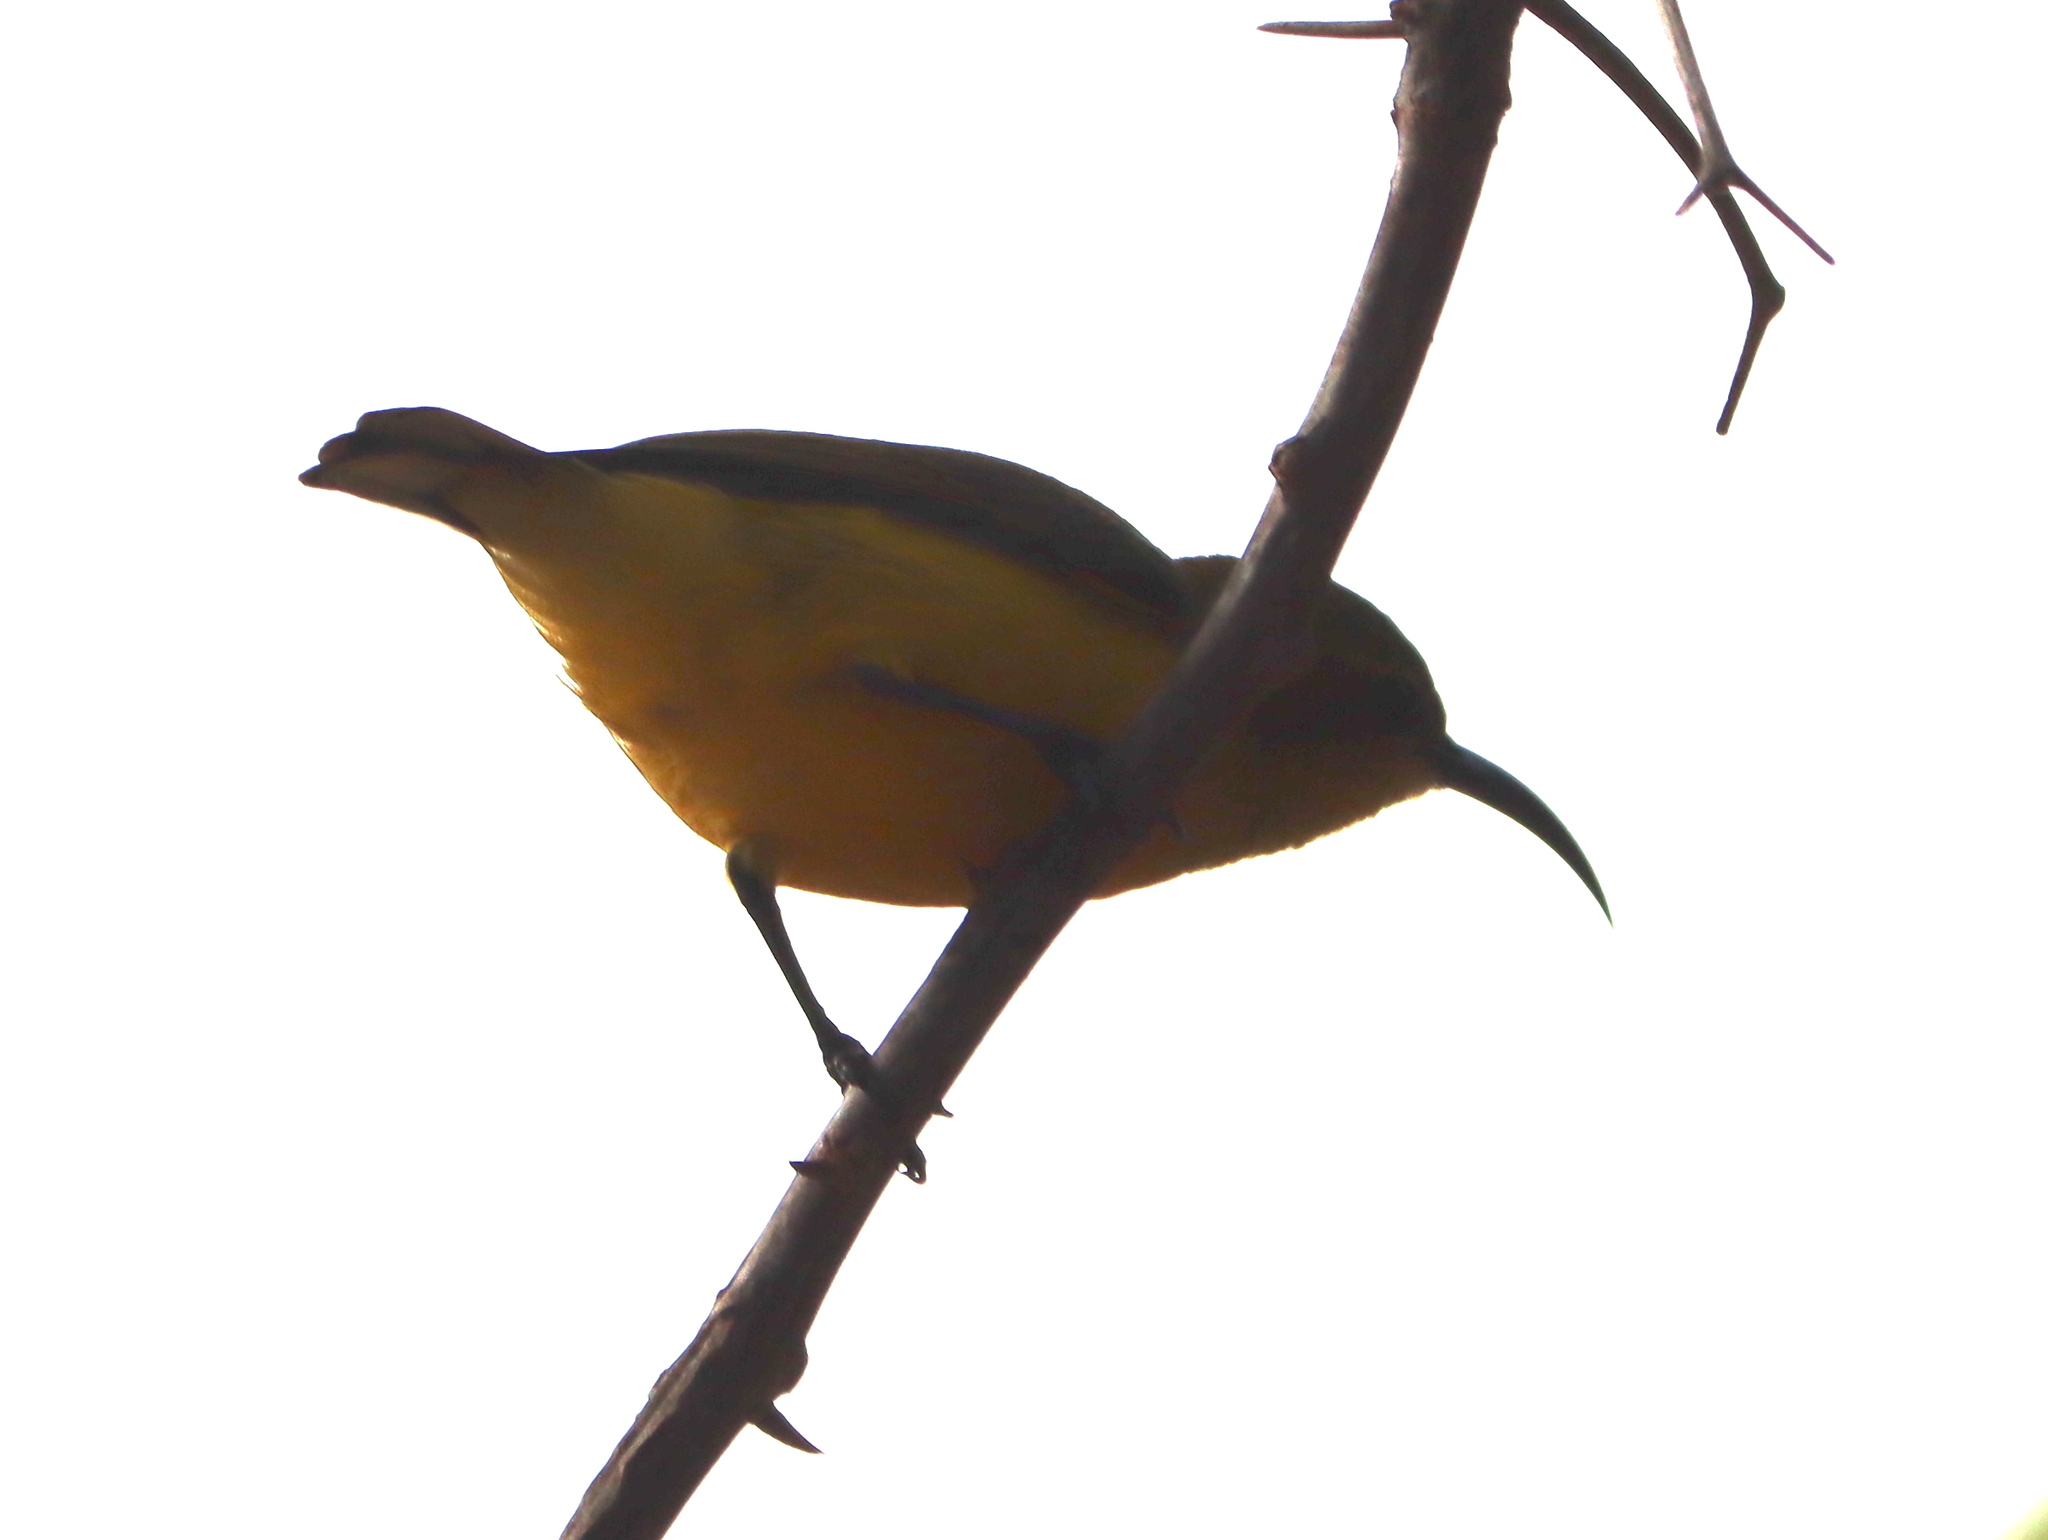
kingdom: Animalia
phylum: Chordata
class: Aves
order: Passeriformes
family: Nectariniidae
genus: Cinnyris
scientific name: Cinnyris
